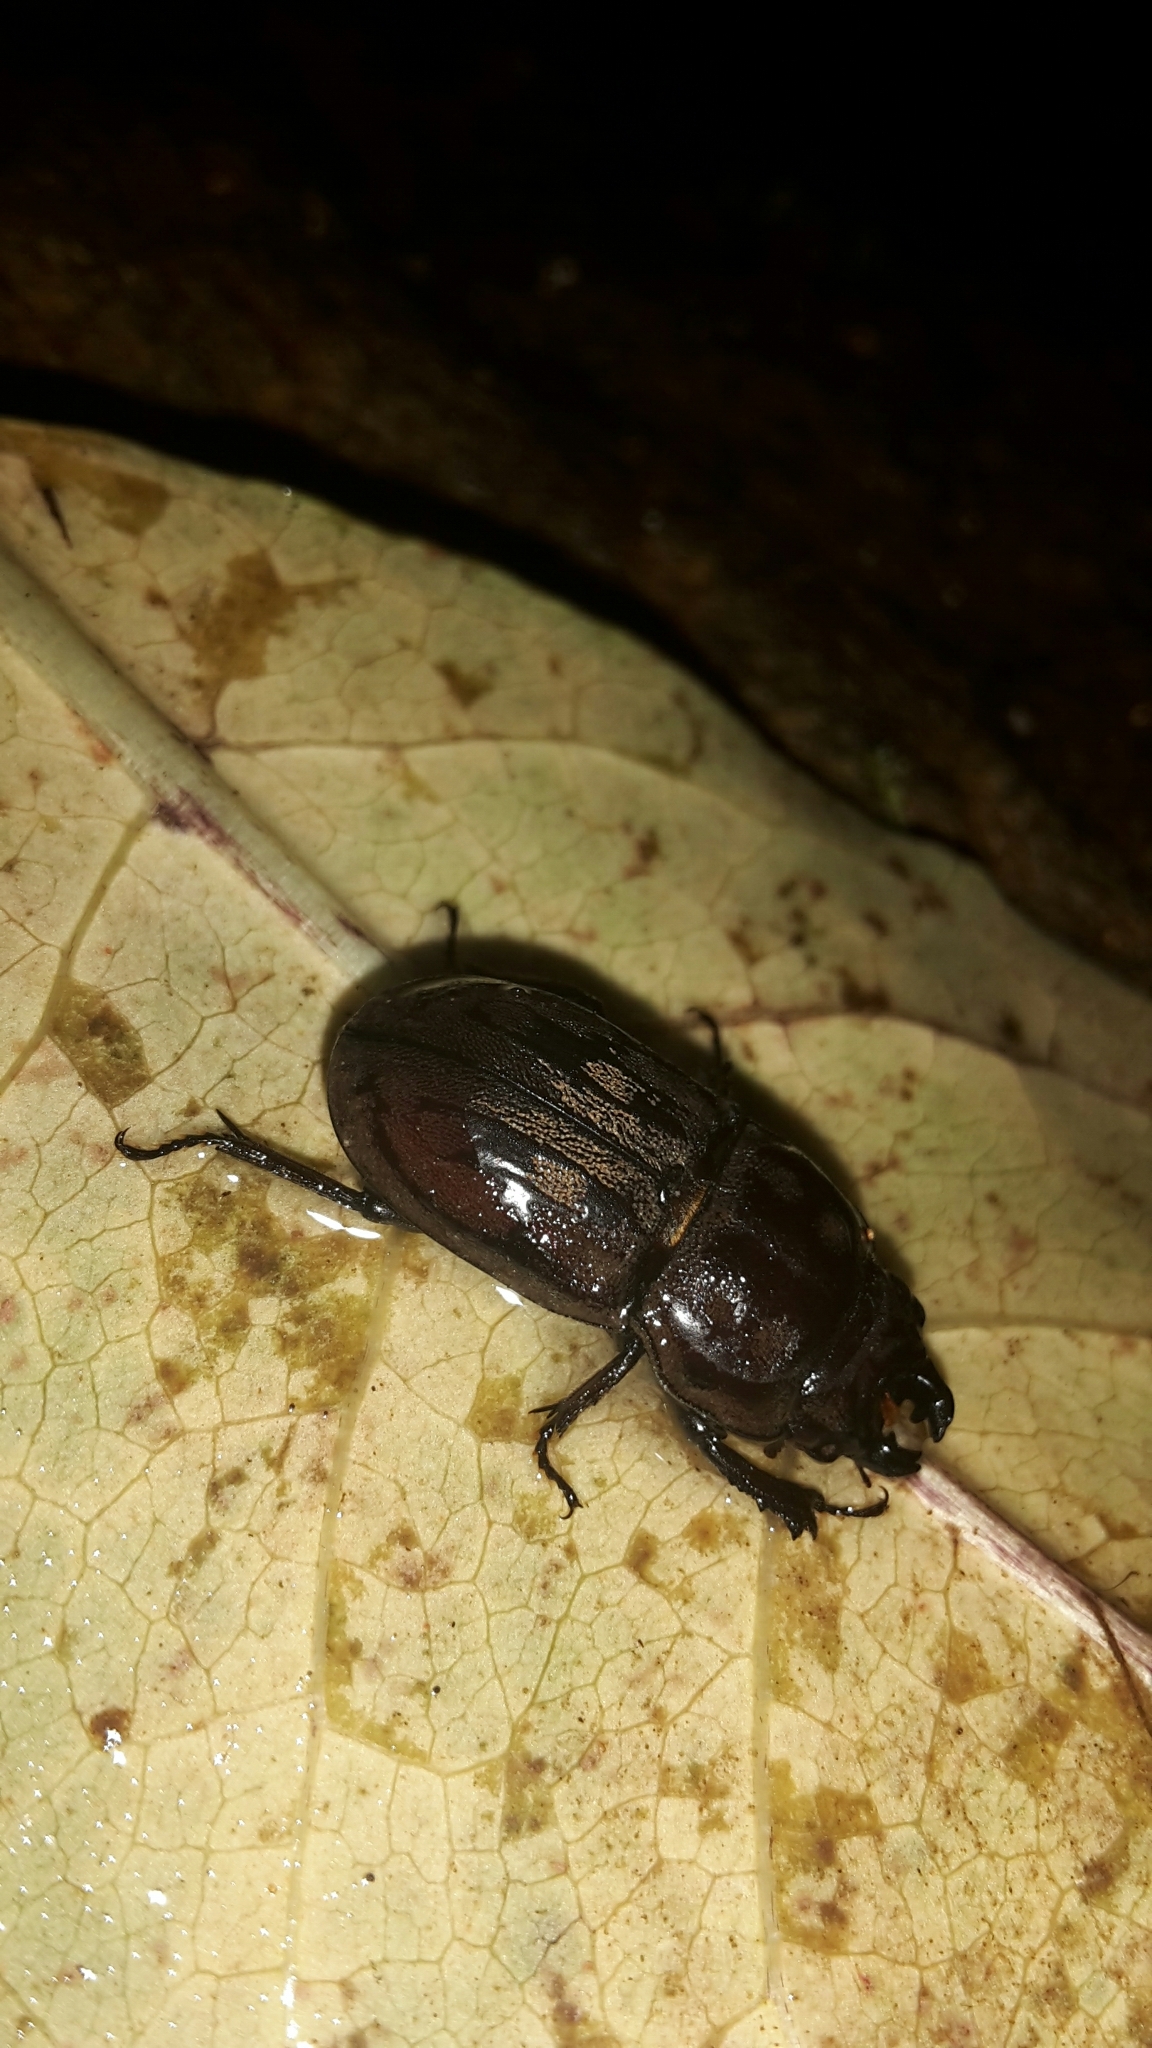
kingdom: Animalia
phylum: Arthropoda
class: Insecta
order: Coleoptera
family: Lucanidae
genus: Paralissotes
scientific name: Paralissotes reticulatus
